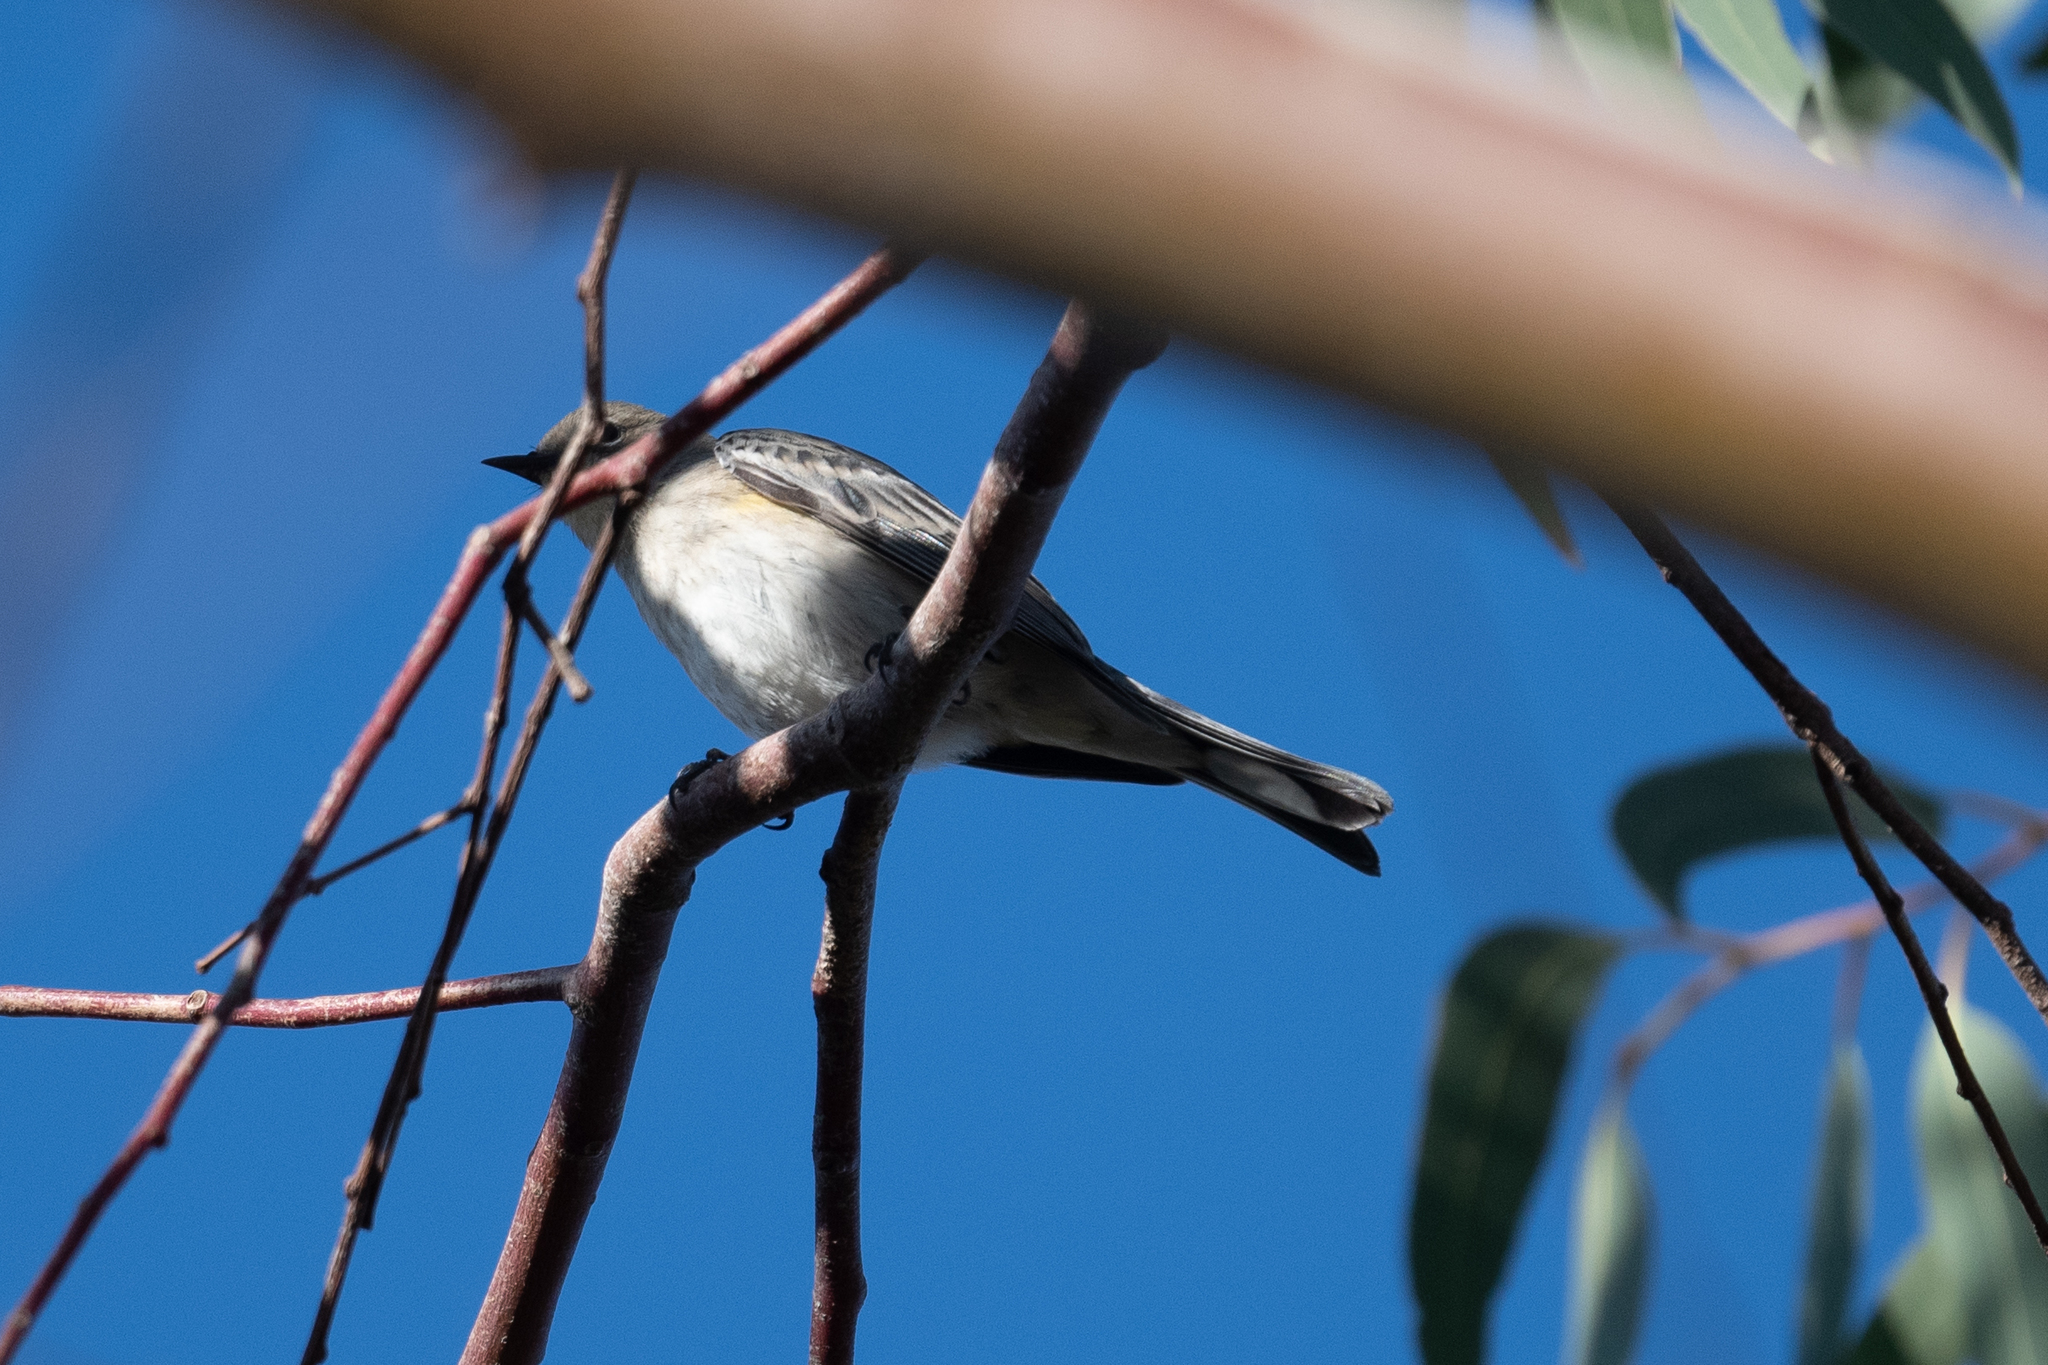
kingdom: Animalia
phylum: Chordata
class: Aves
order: Passeriformes
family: Parulidae
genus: Setophaga
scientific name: Setophaga coronata
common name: Myrtle warbler
